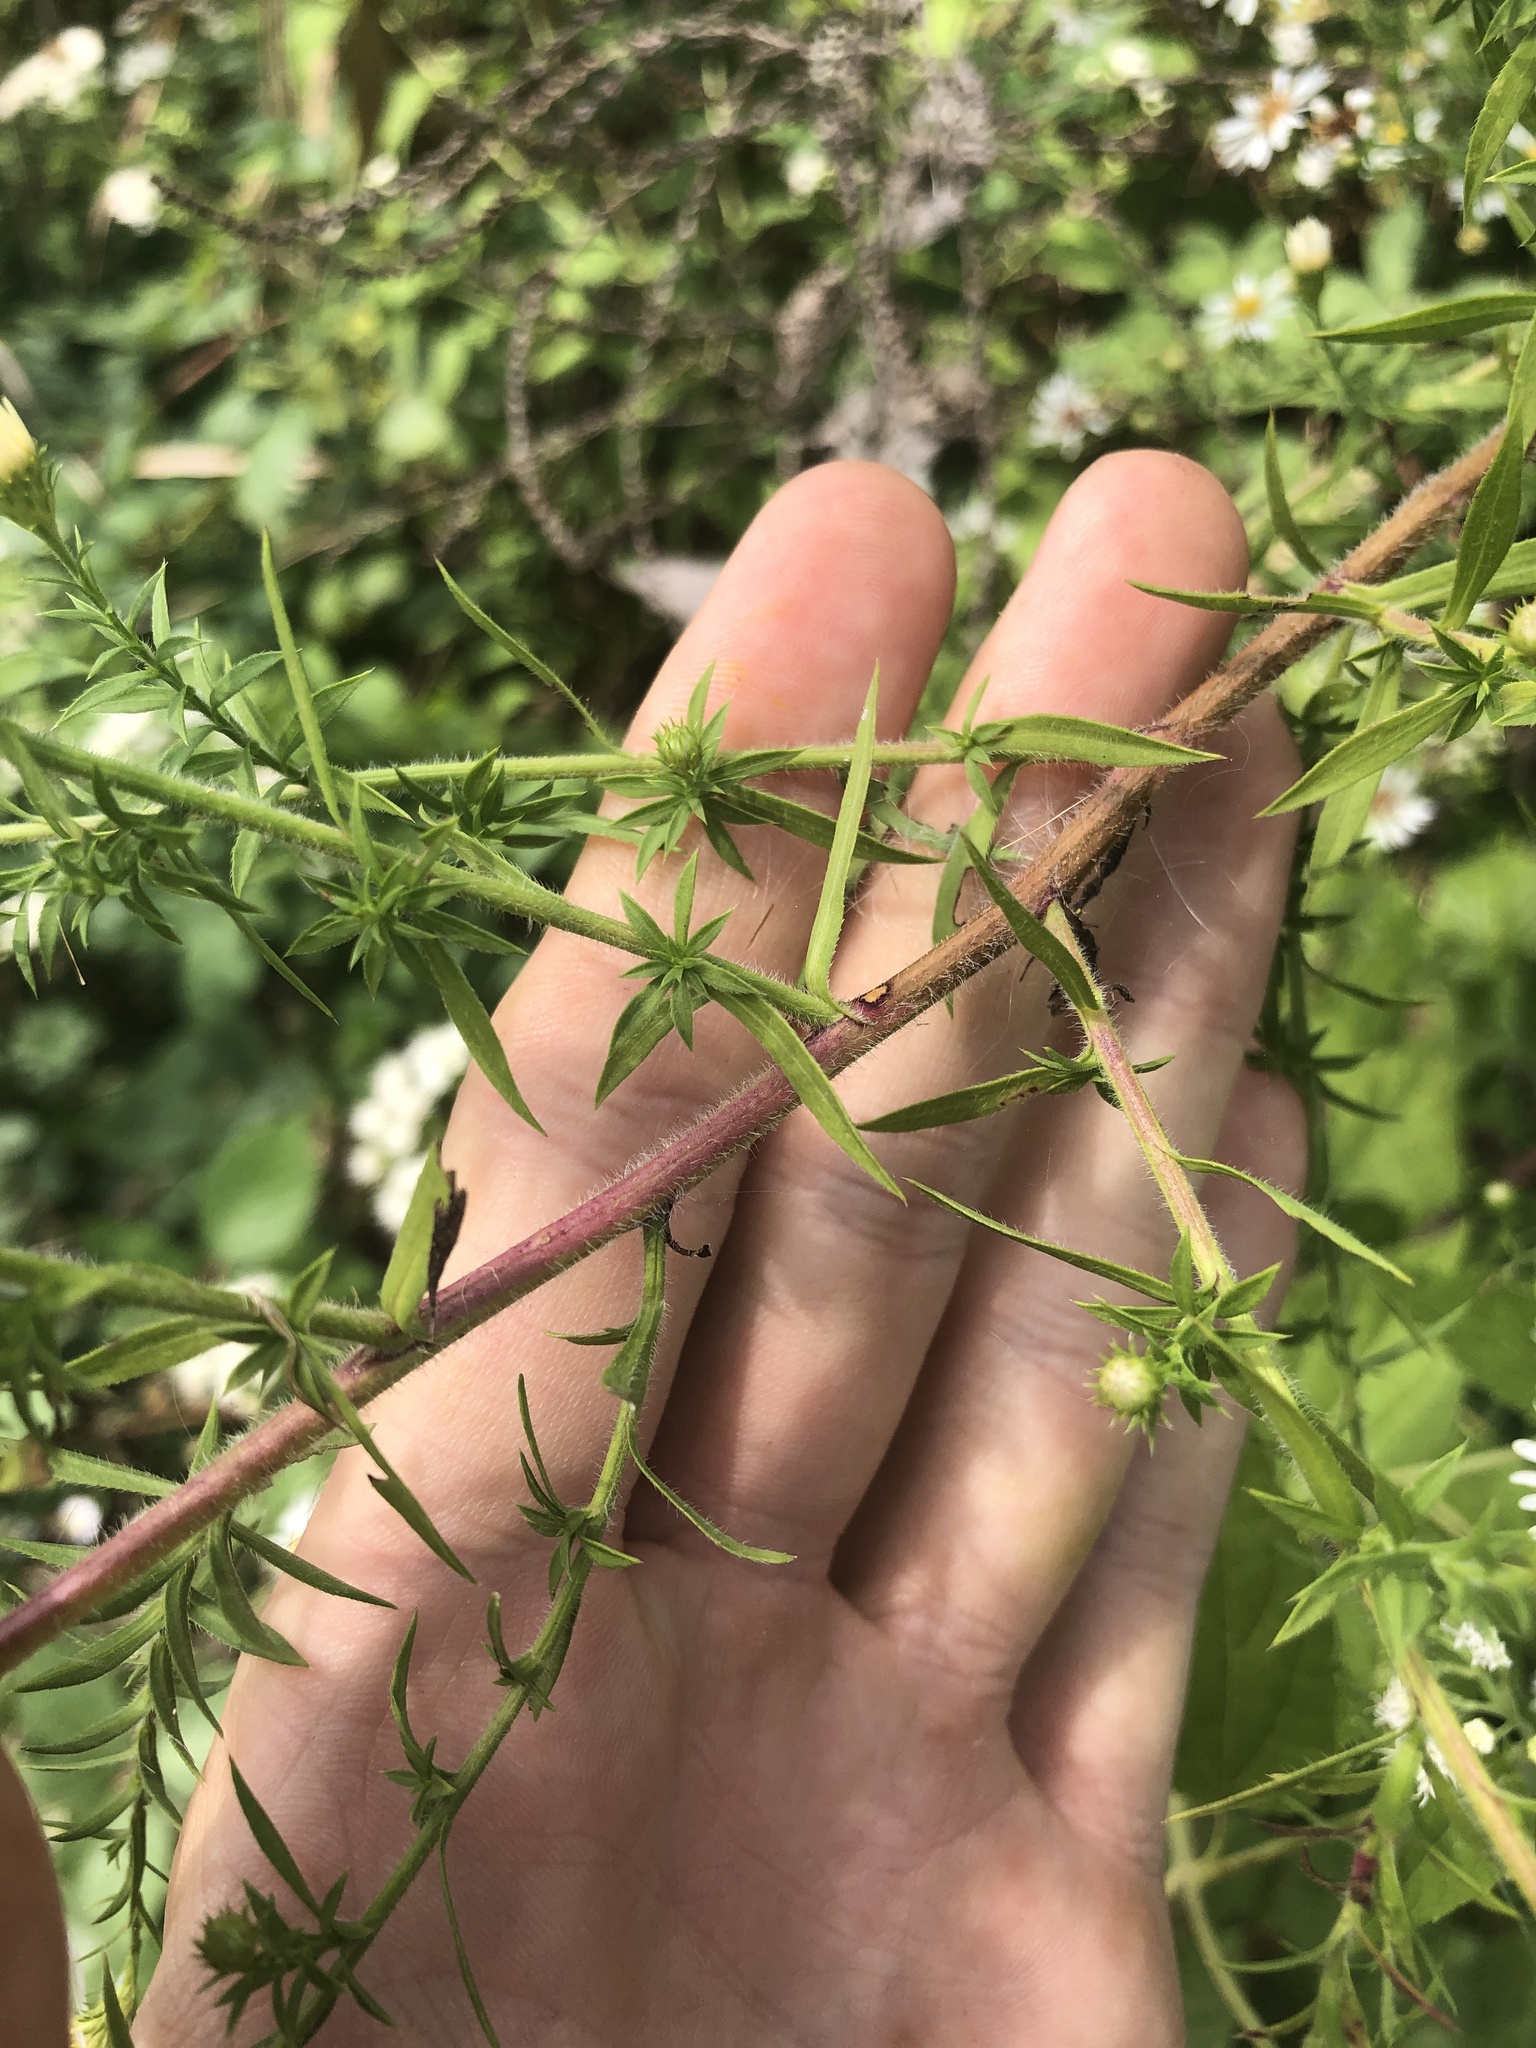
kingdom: Plantae
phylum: Tracheophyta
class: Magnoliopsida
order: Asterales
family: Asteraceae
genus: Symphyotrichum
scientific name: Symphyotrichum pilosum
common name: Awl aster
